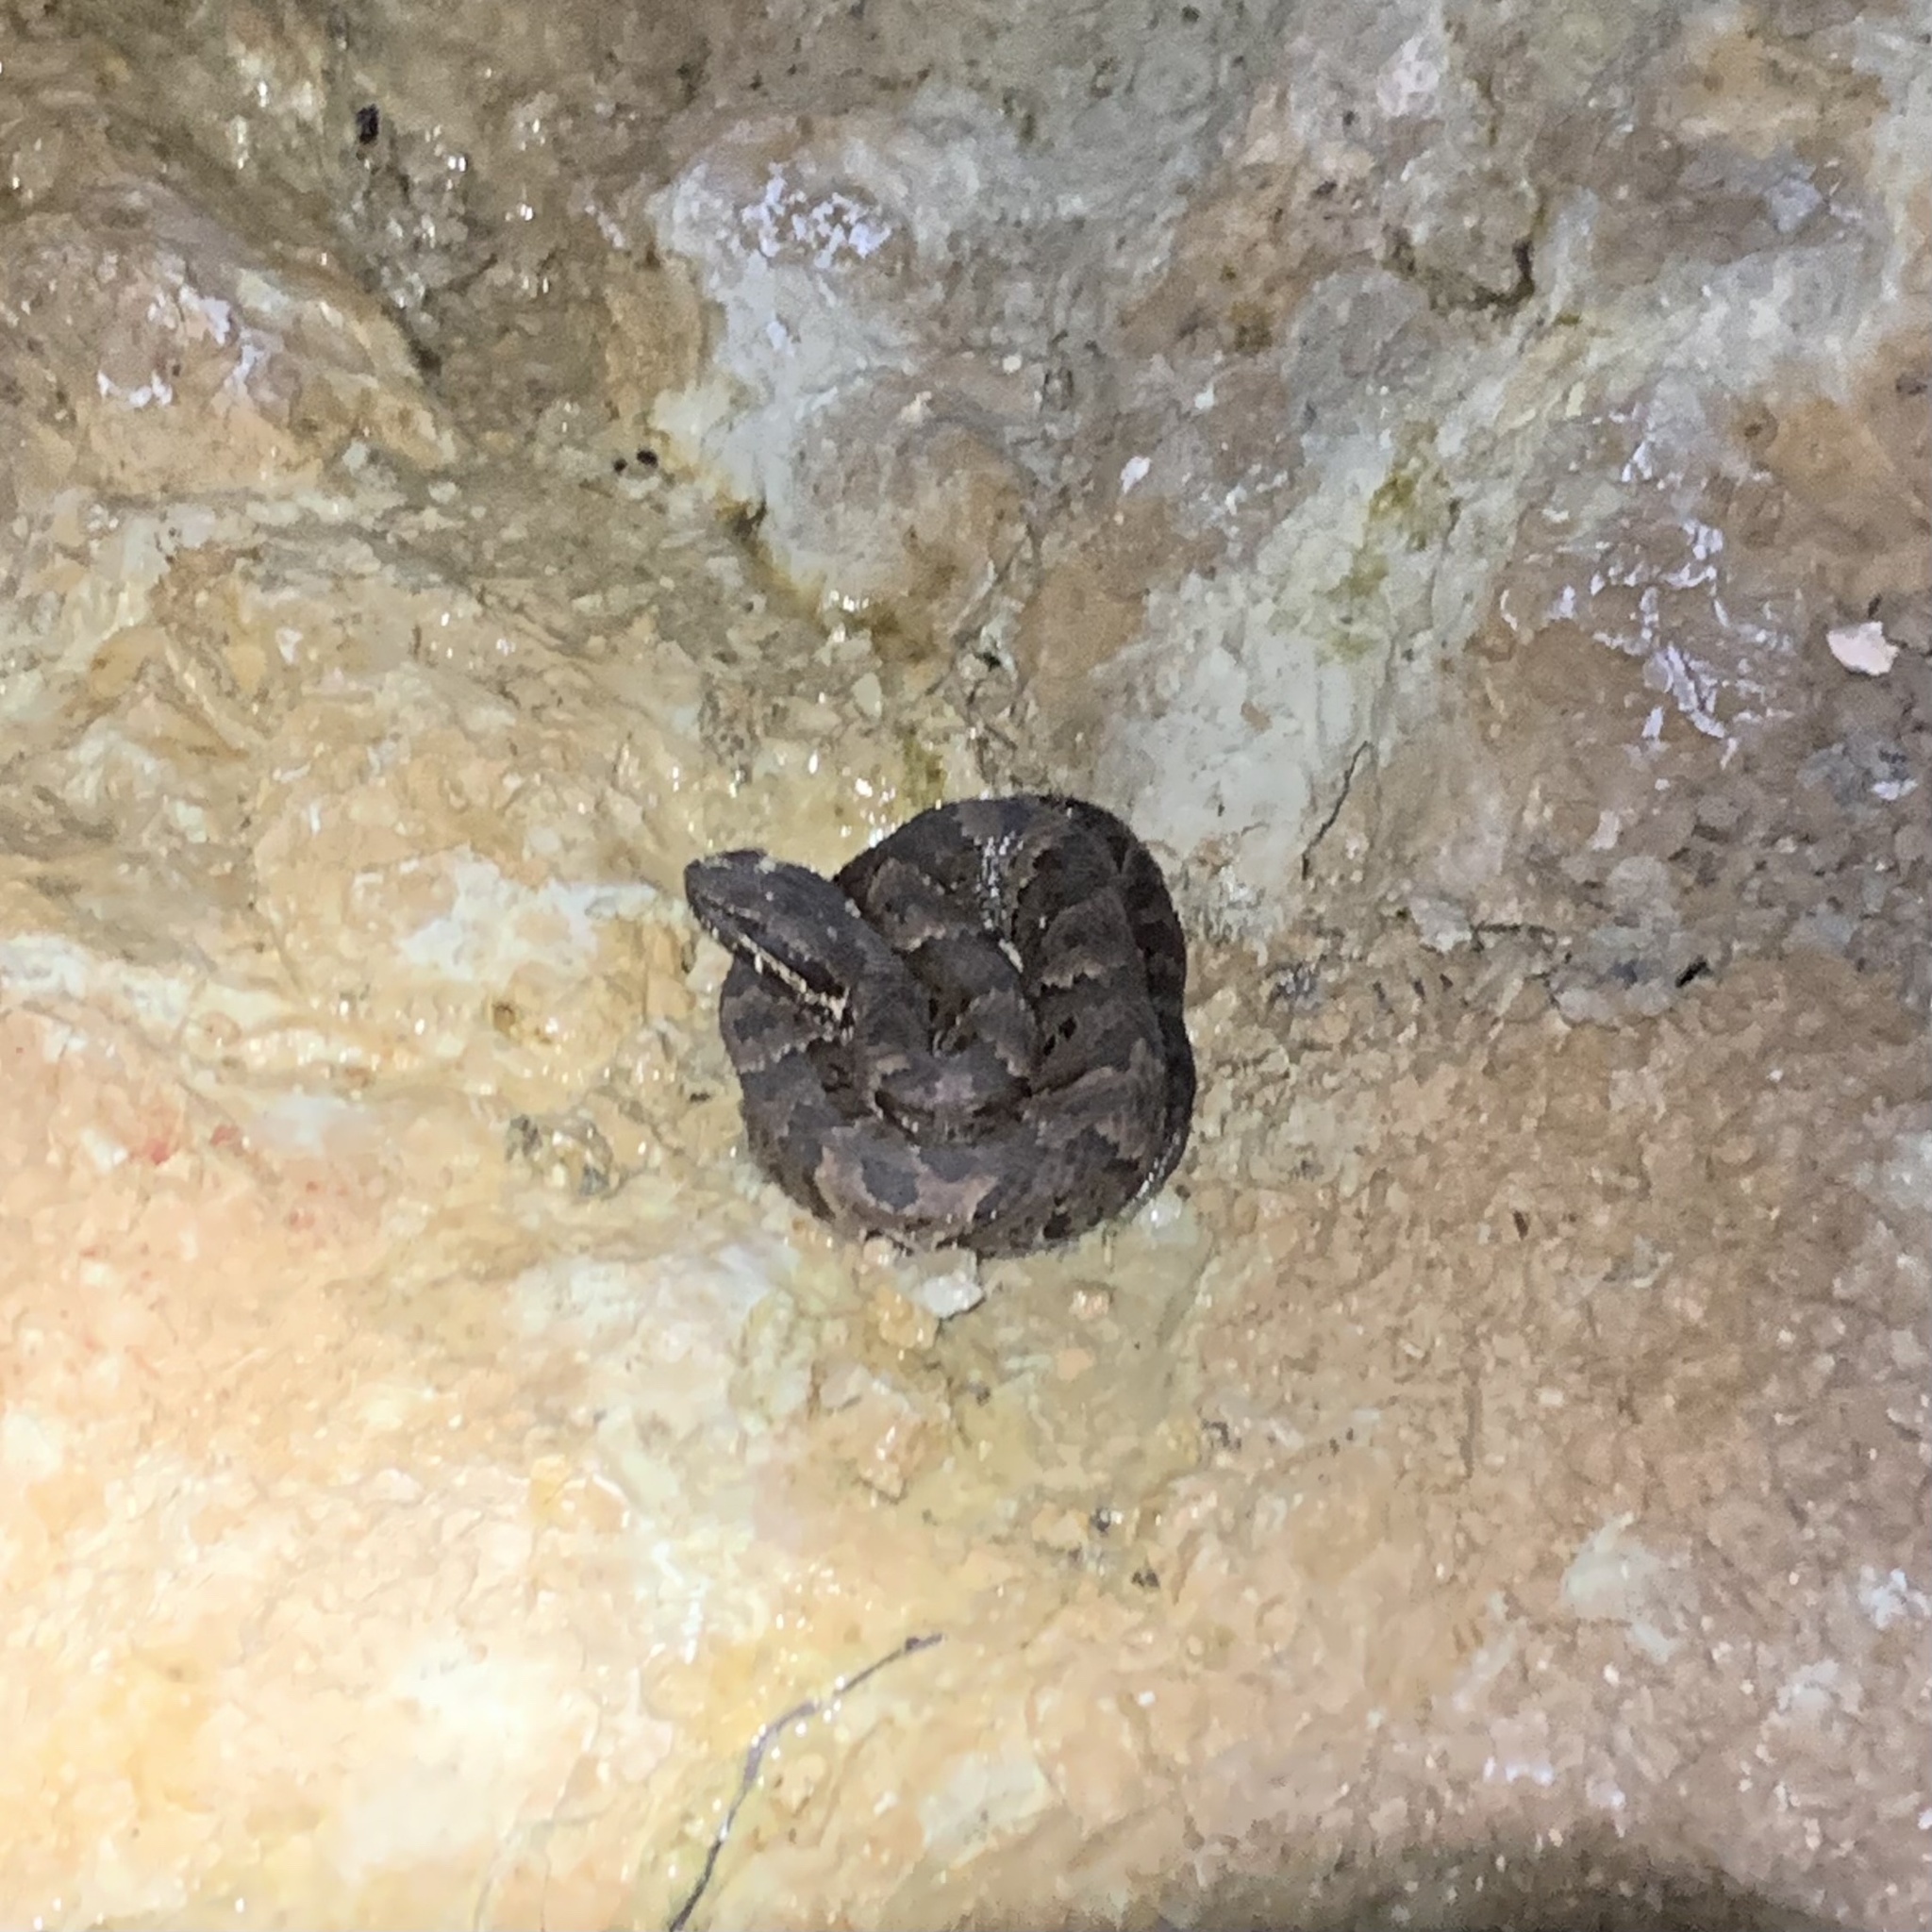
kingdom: Animalia
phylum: Chordata
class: Squamata
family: Viperidae
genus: Agkistrodon
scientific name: Agkistrodon piscivorus
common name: Cottonmouth
